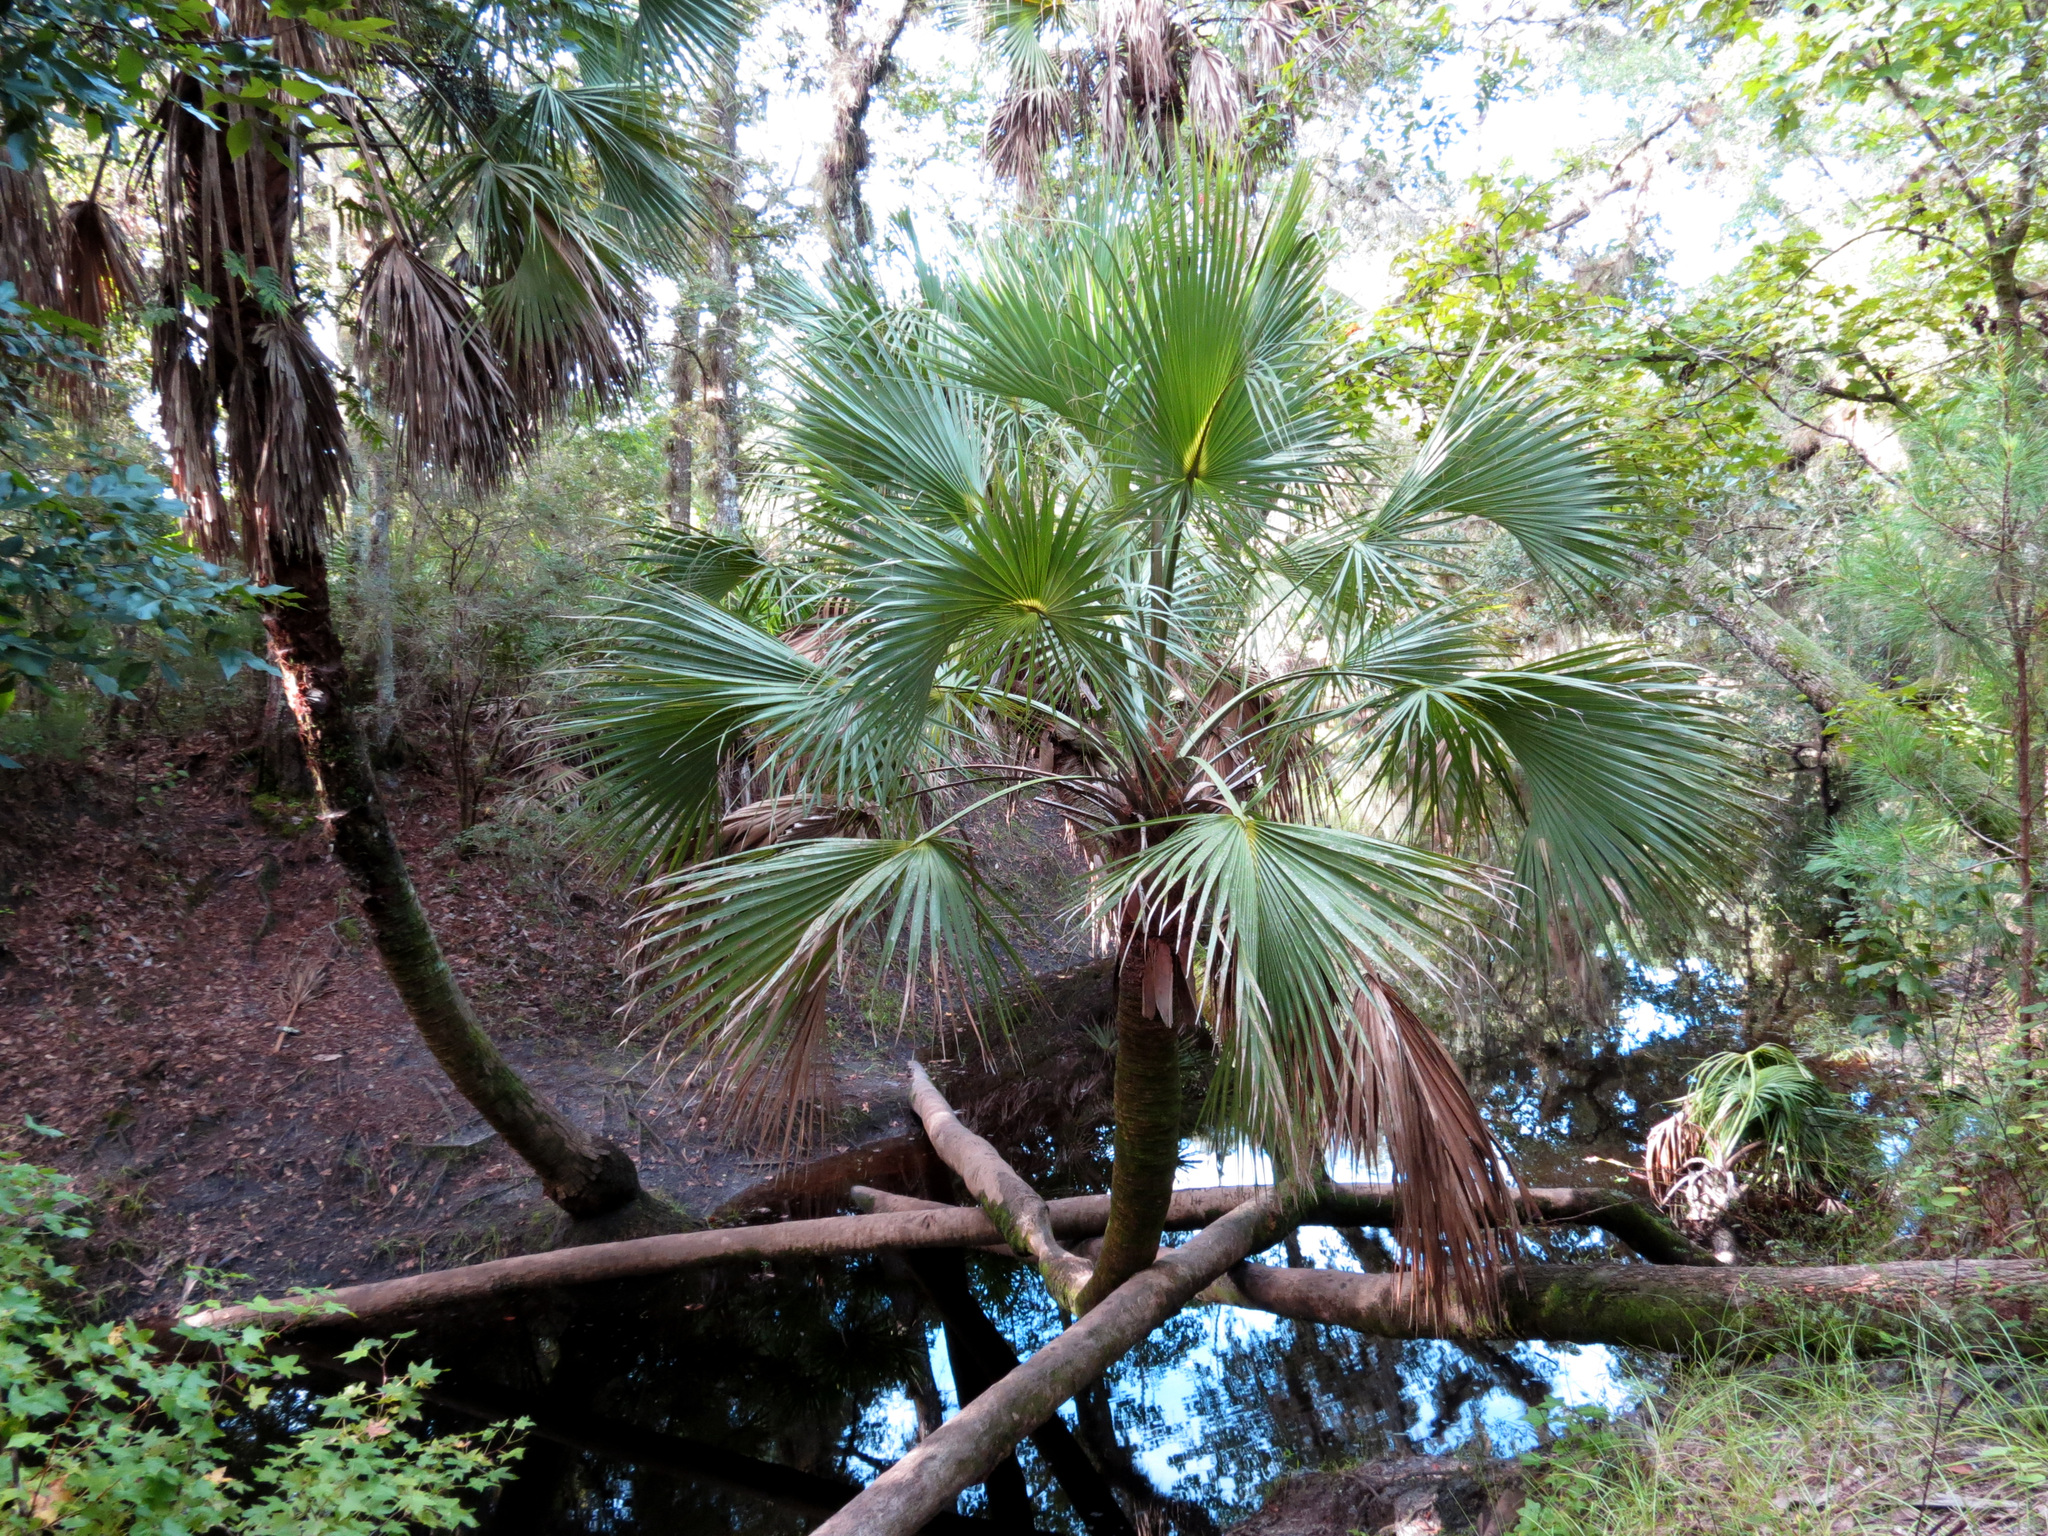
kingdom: Plantae
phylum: Tracheophyta
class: Liliopsida
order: Arecales
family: Arecaceae
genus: Sabal
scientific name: Sabal palmetto
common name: Blue palmetto
